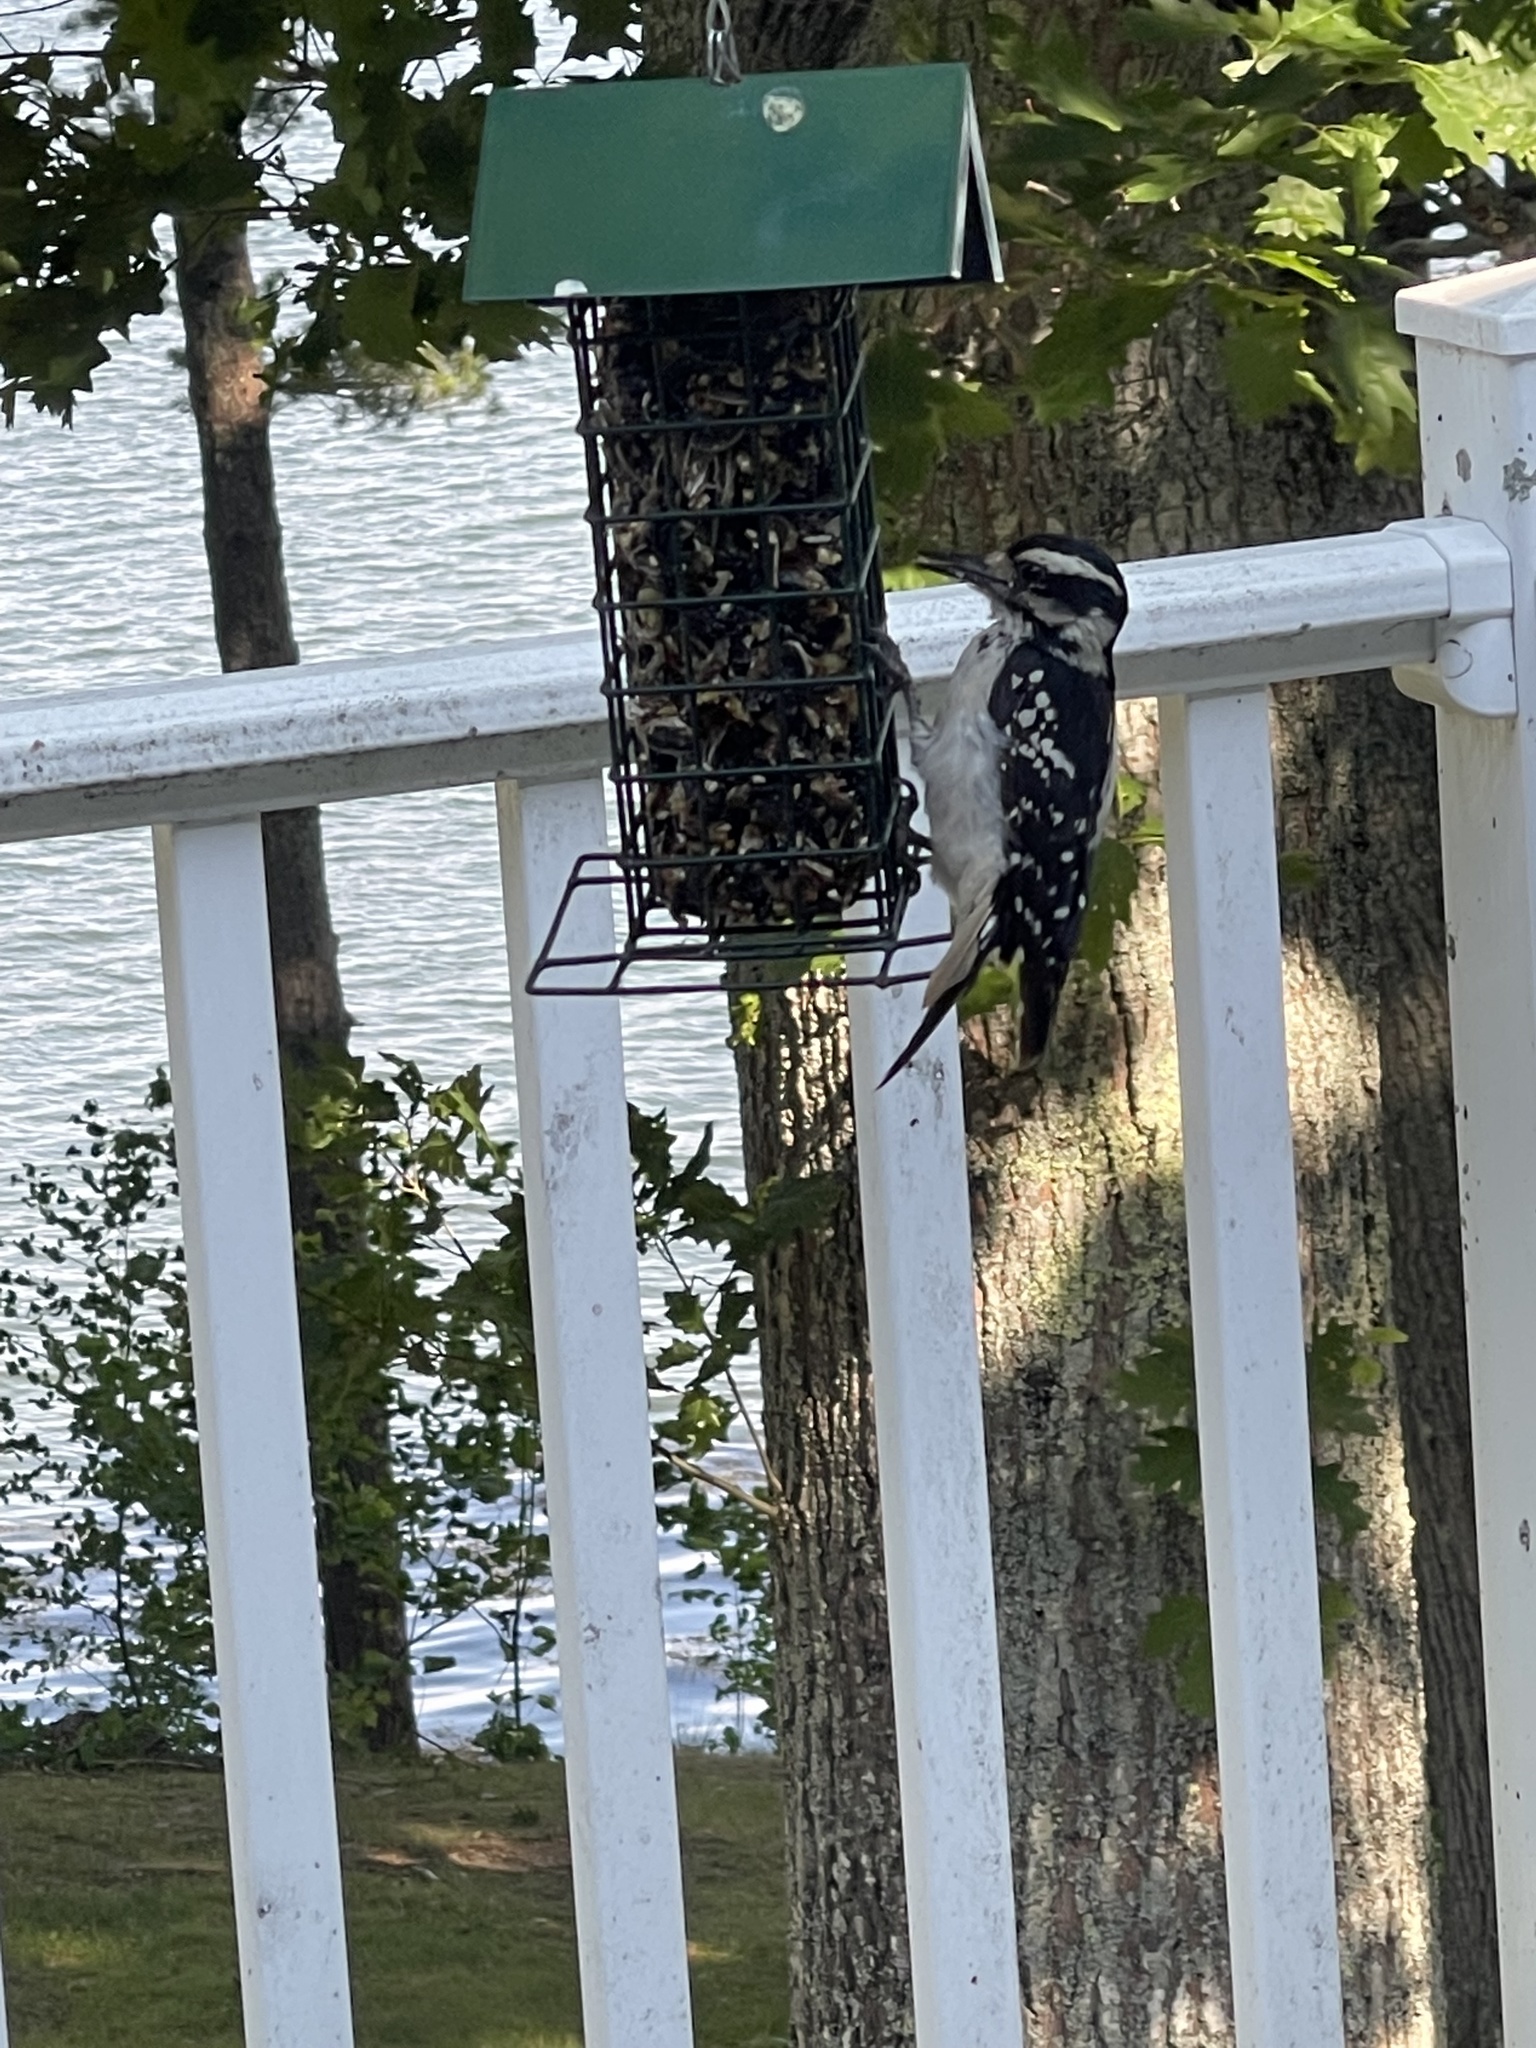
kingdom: Animalia
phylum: Chordata
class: Aves
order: Piciformes
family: Picidae
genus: Leuconotopicus
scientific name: Leuconotopicus villosus
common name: Hairy woodpecker
